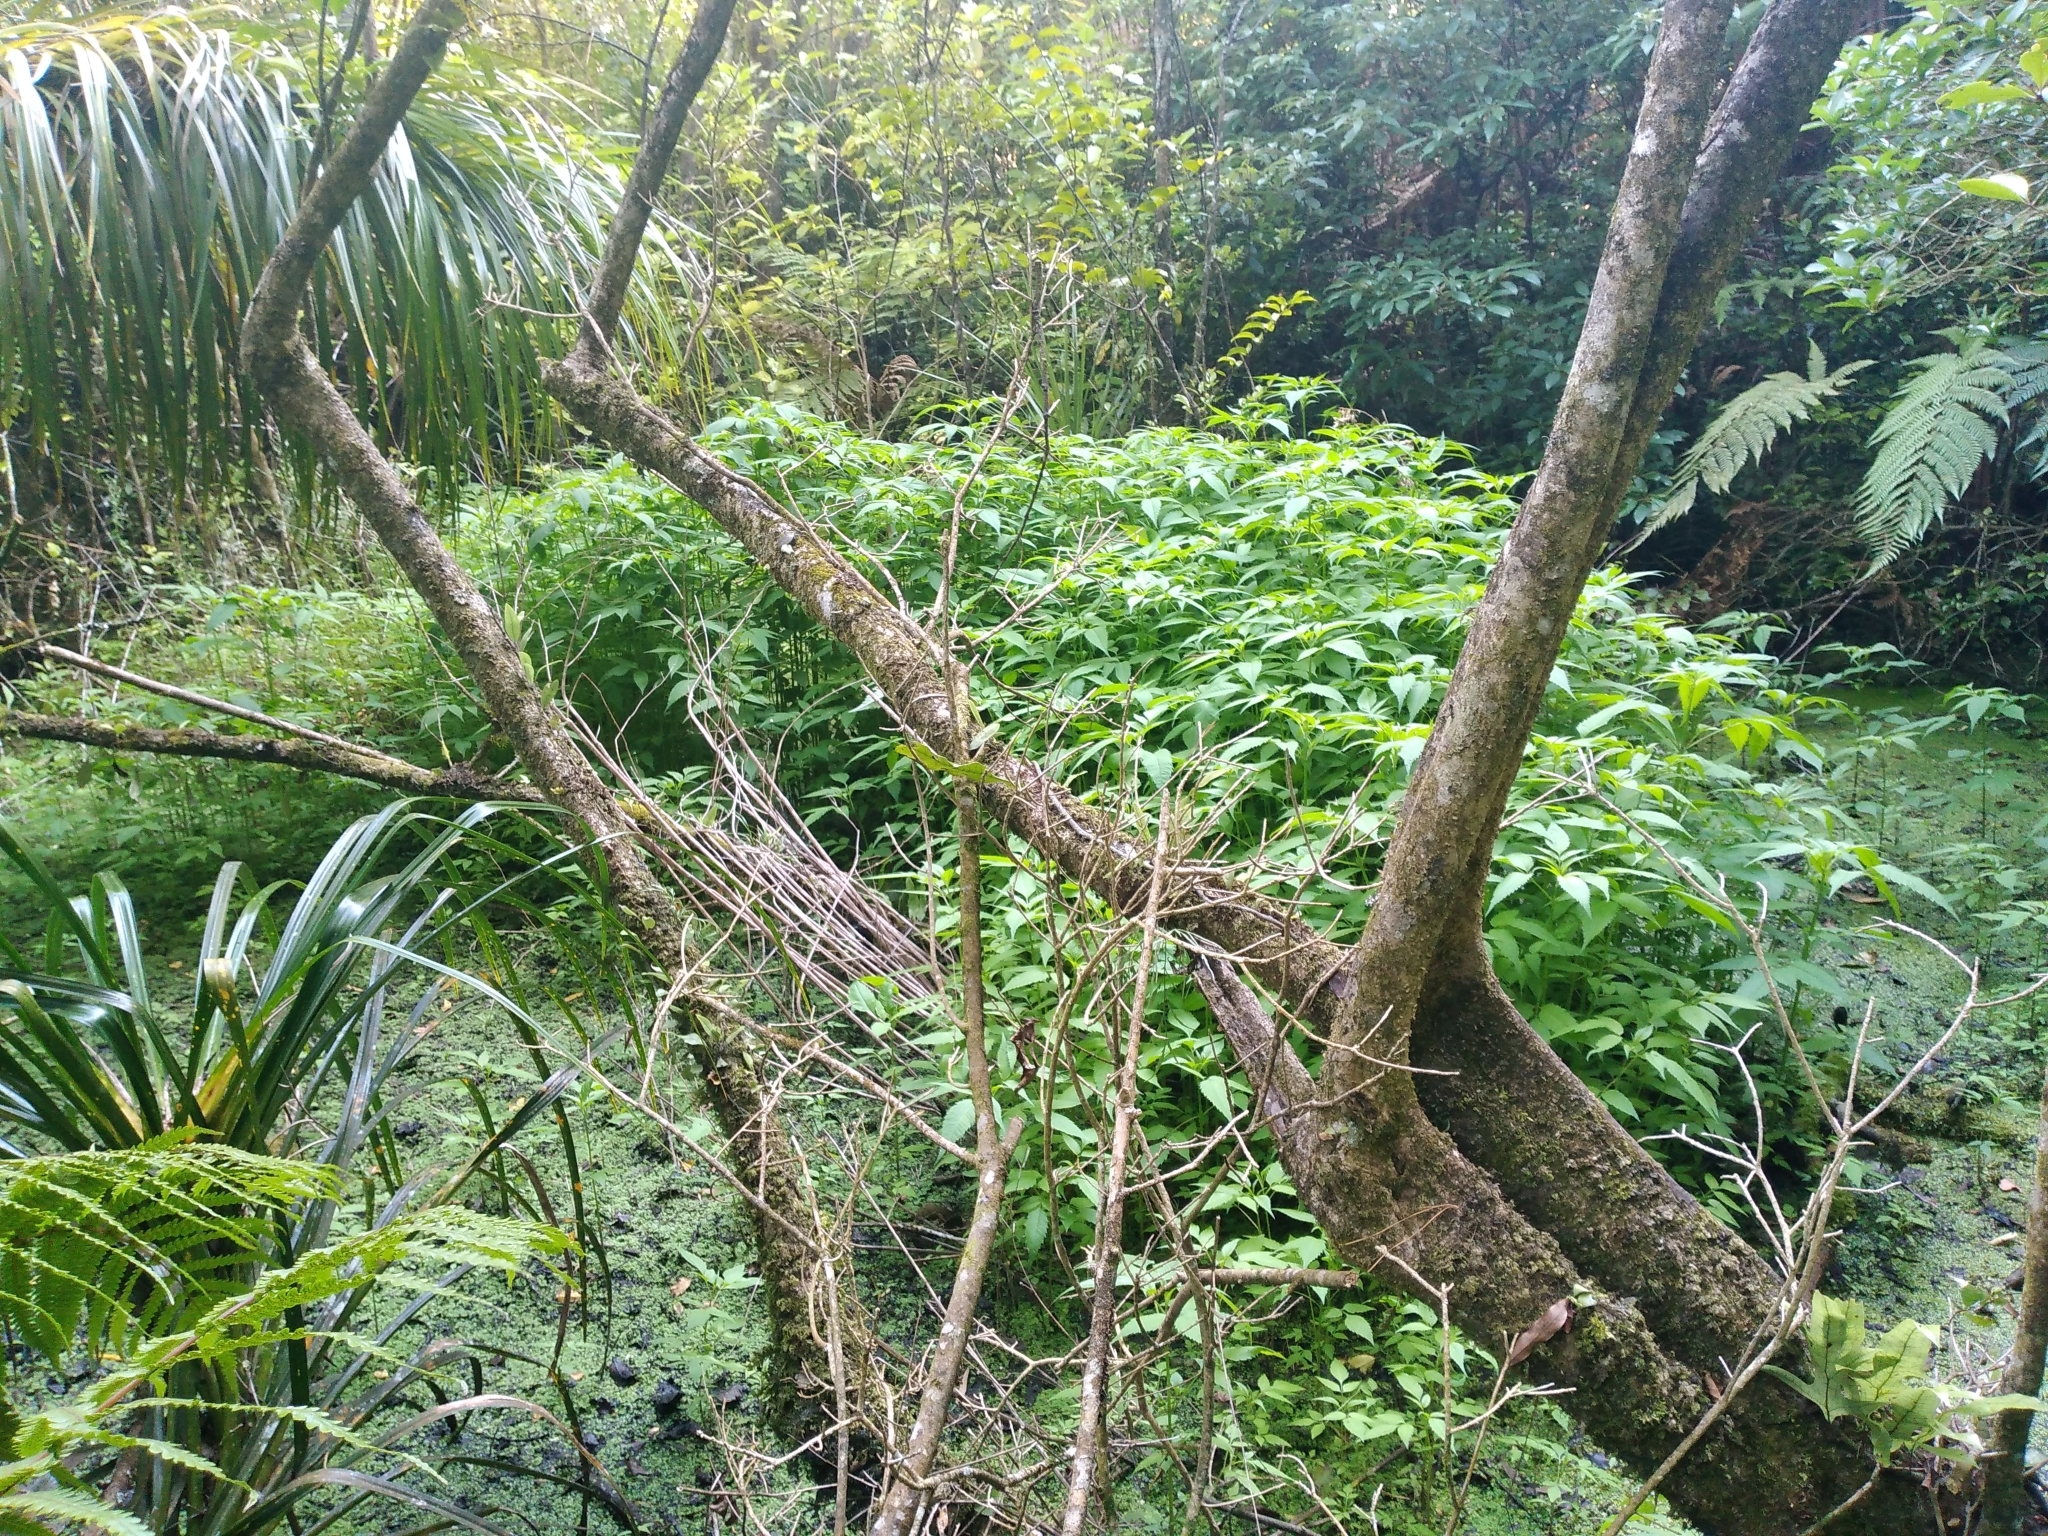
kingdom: Plantae
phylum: Tracheophyta
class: Magnoliopsida
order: Asterales
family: Asteraceae
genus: Bidens
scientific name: Bidens frondosa
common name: Beggarticks
